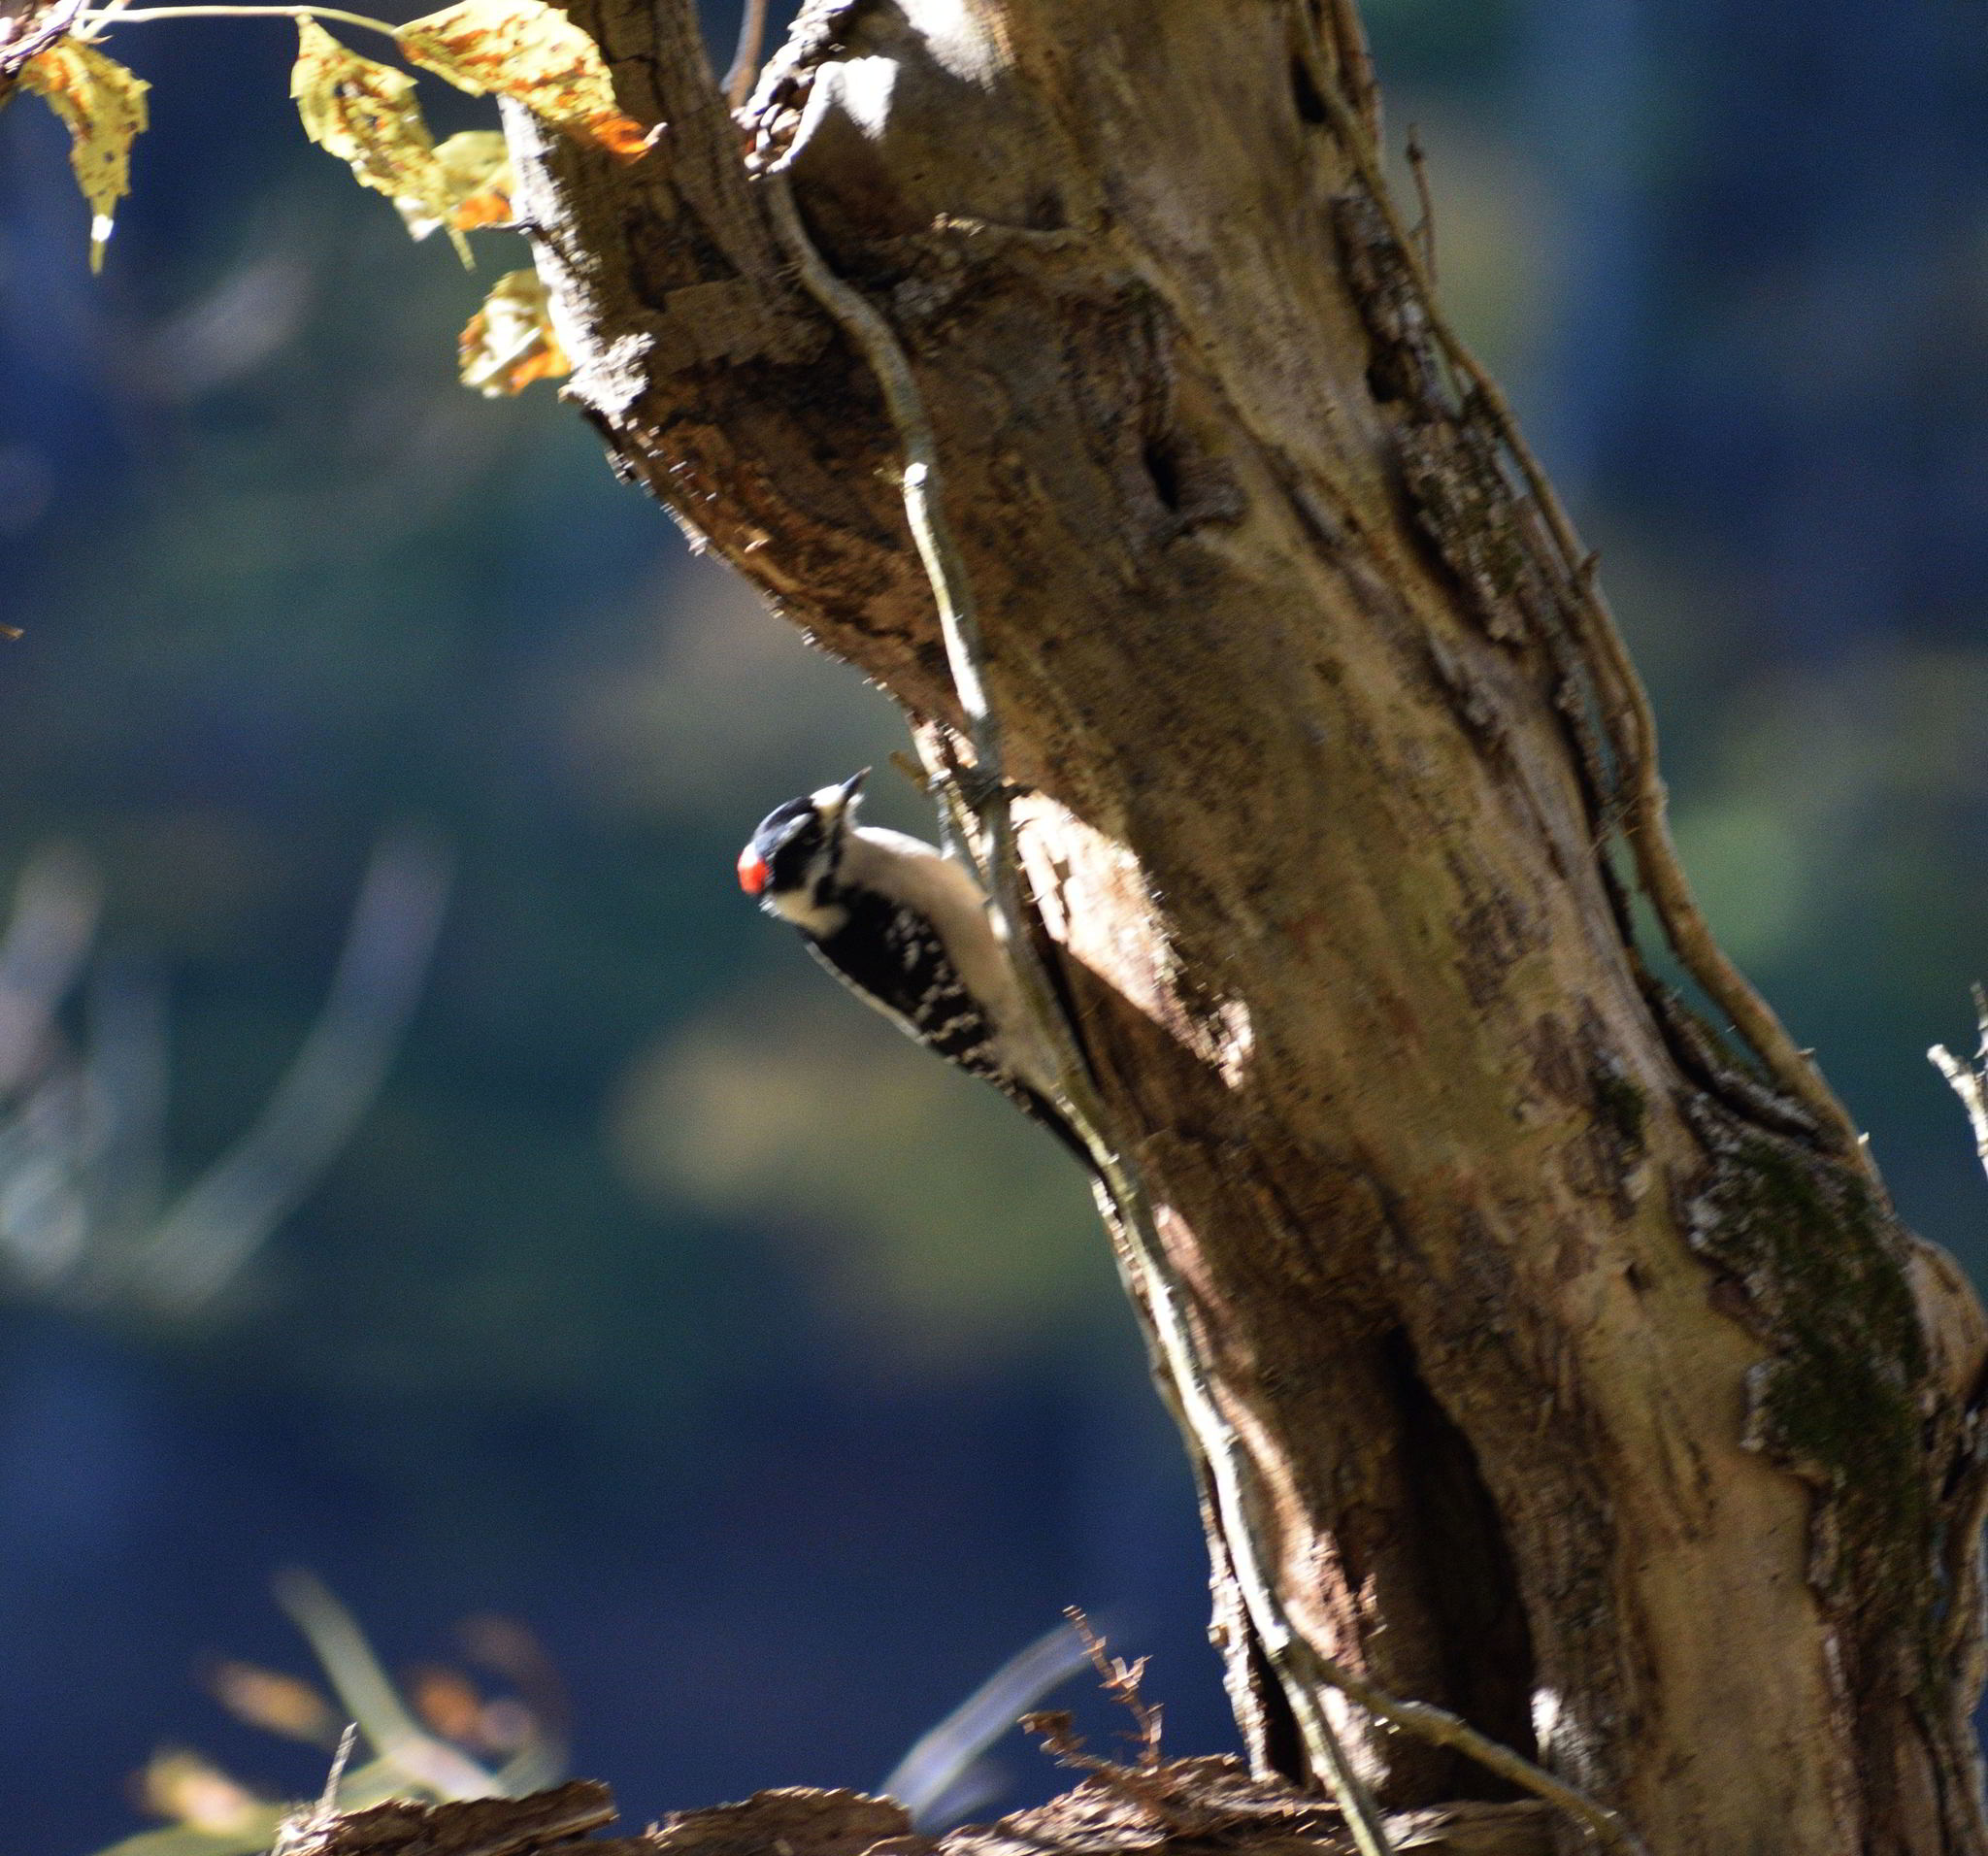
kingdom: Animalia
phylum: Chordata
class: Aves
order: Piciformes
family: Picidae
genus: Dryobates
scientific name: Dryobates pubescens
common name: Downy woodpecker
